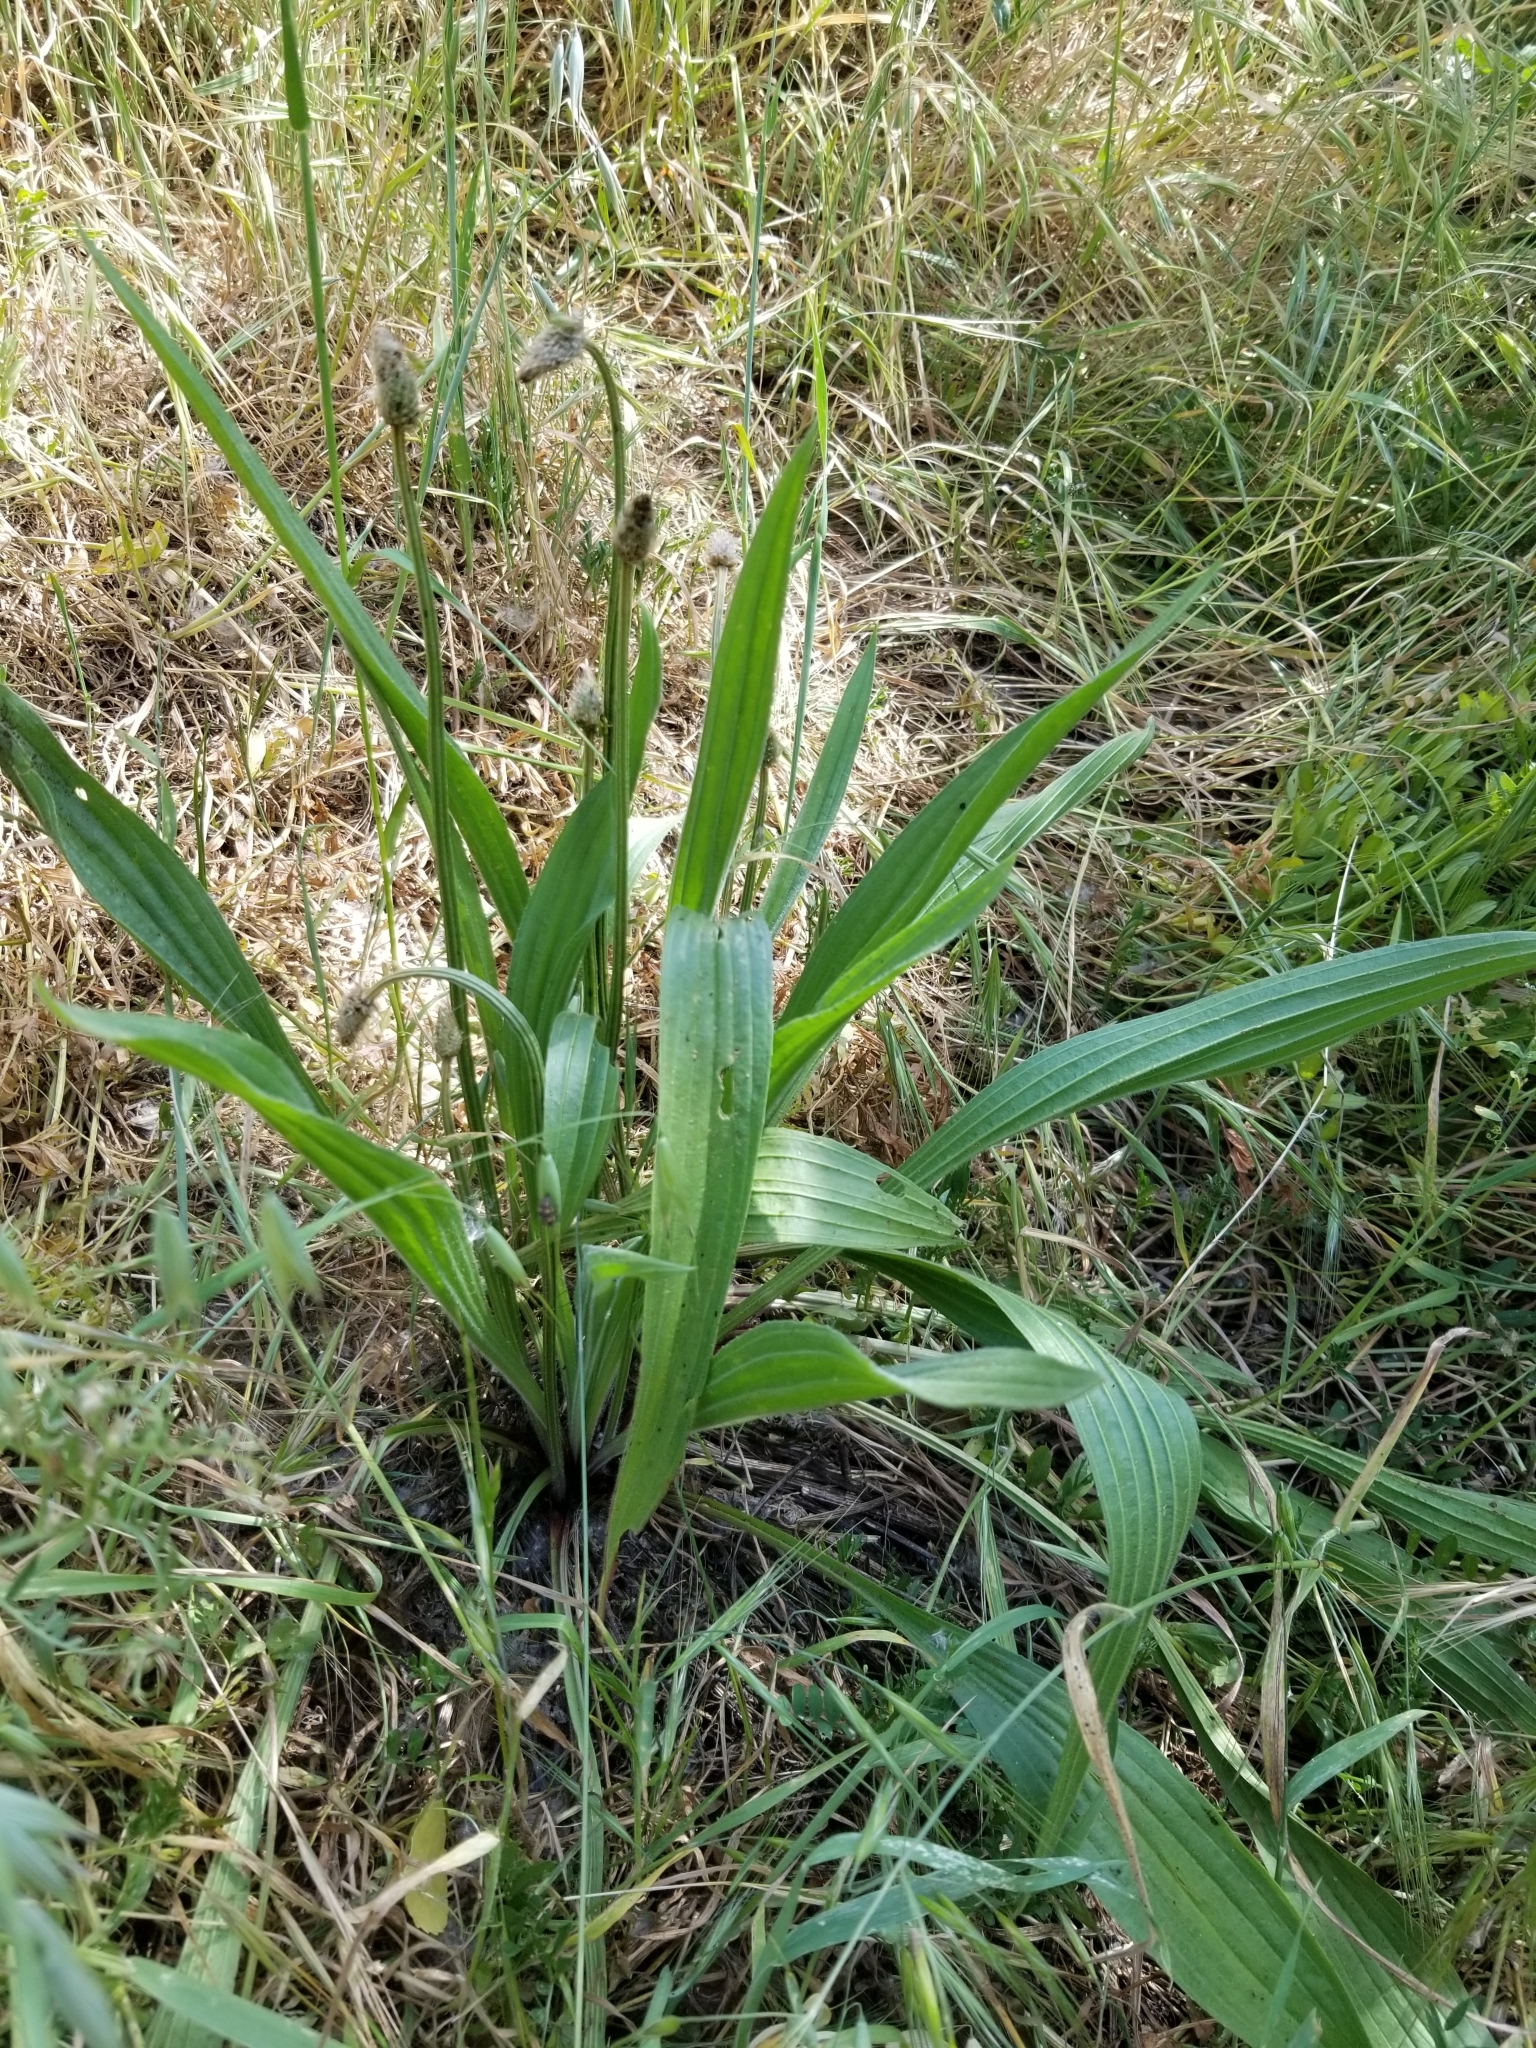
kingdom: Plantae
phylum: Tracheophyta
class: Magnoliopsida
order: Lamiales
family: Plantaginaceae
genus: Plantago
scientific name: Plantago lanceolata
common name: Ribwort plantain
